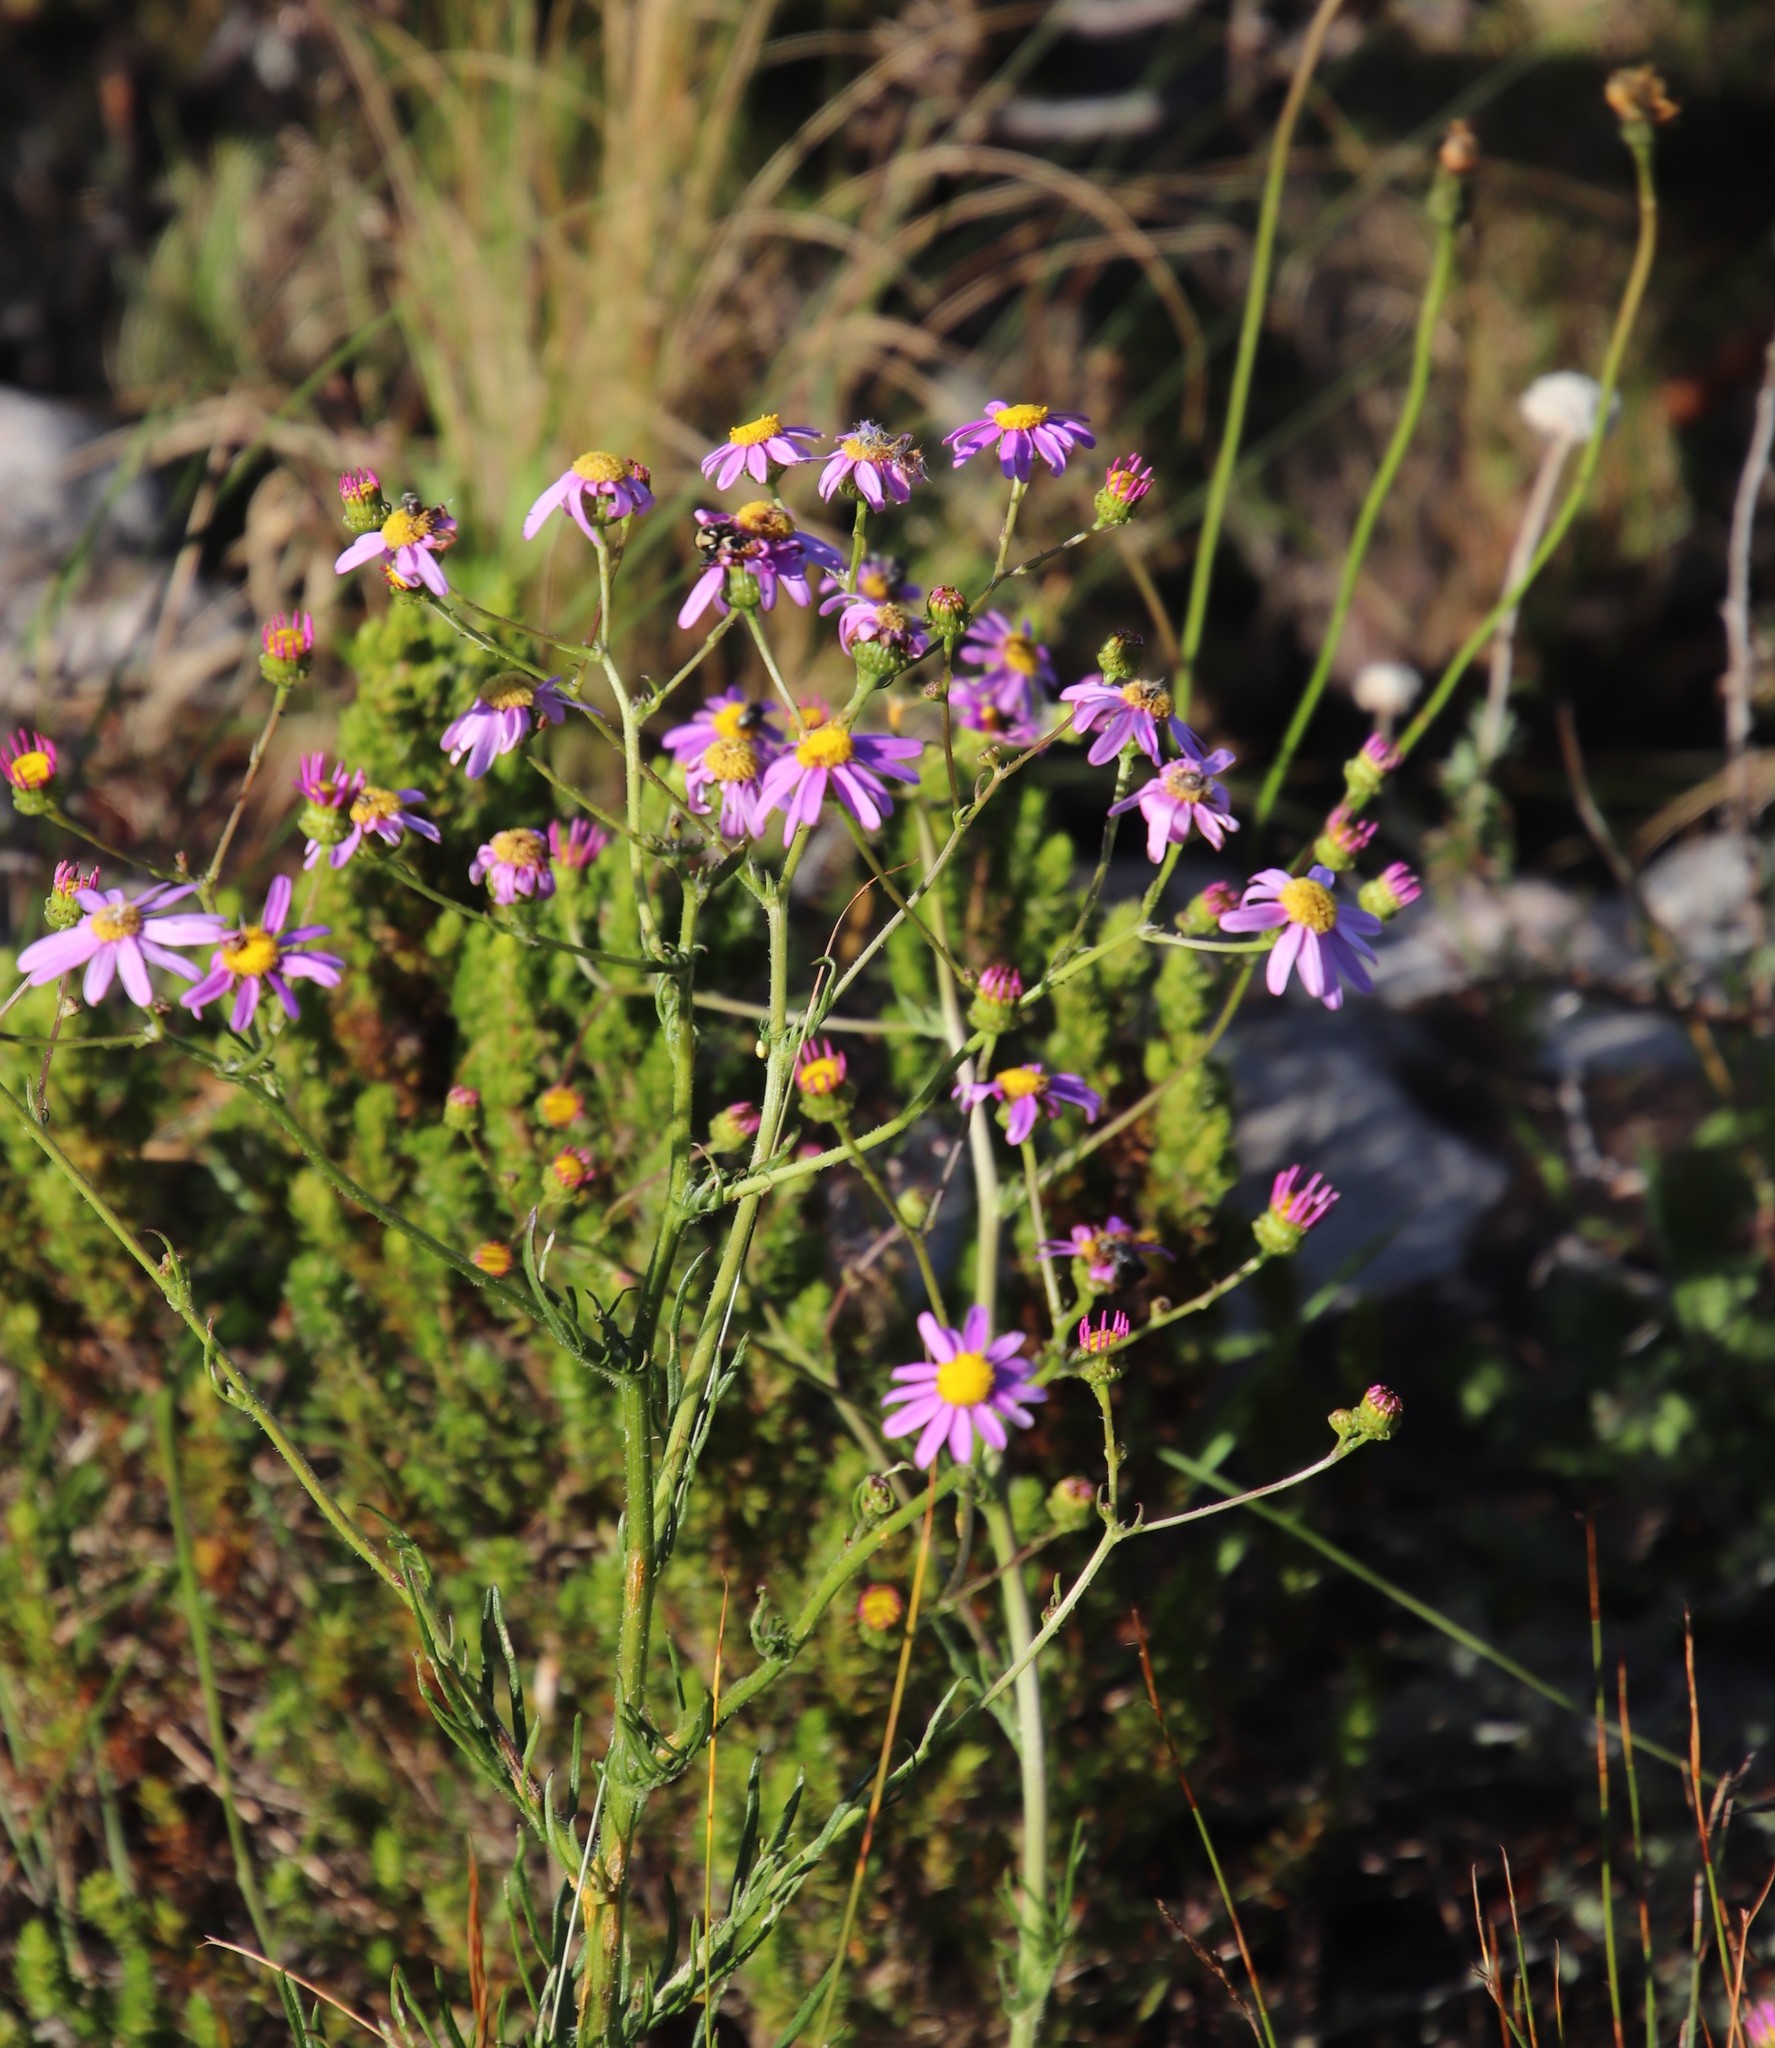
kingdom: Plantae
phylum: Tracheophyta
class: Magnoliopsida
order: Asterales
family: Asteraceae
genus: Senecio
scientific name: Senecio umbellatus
